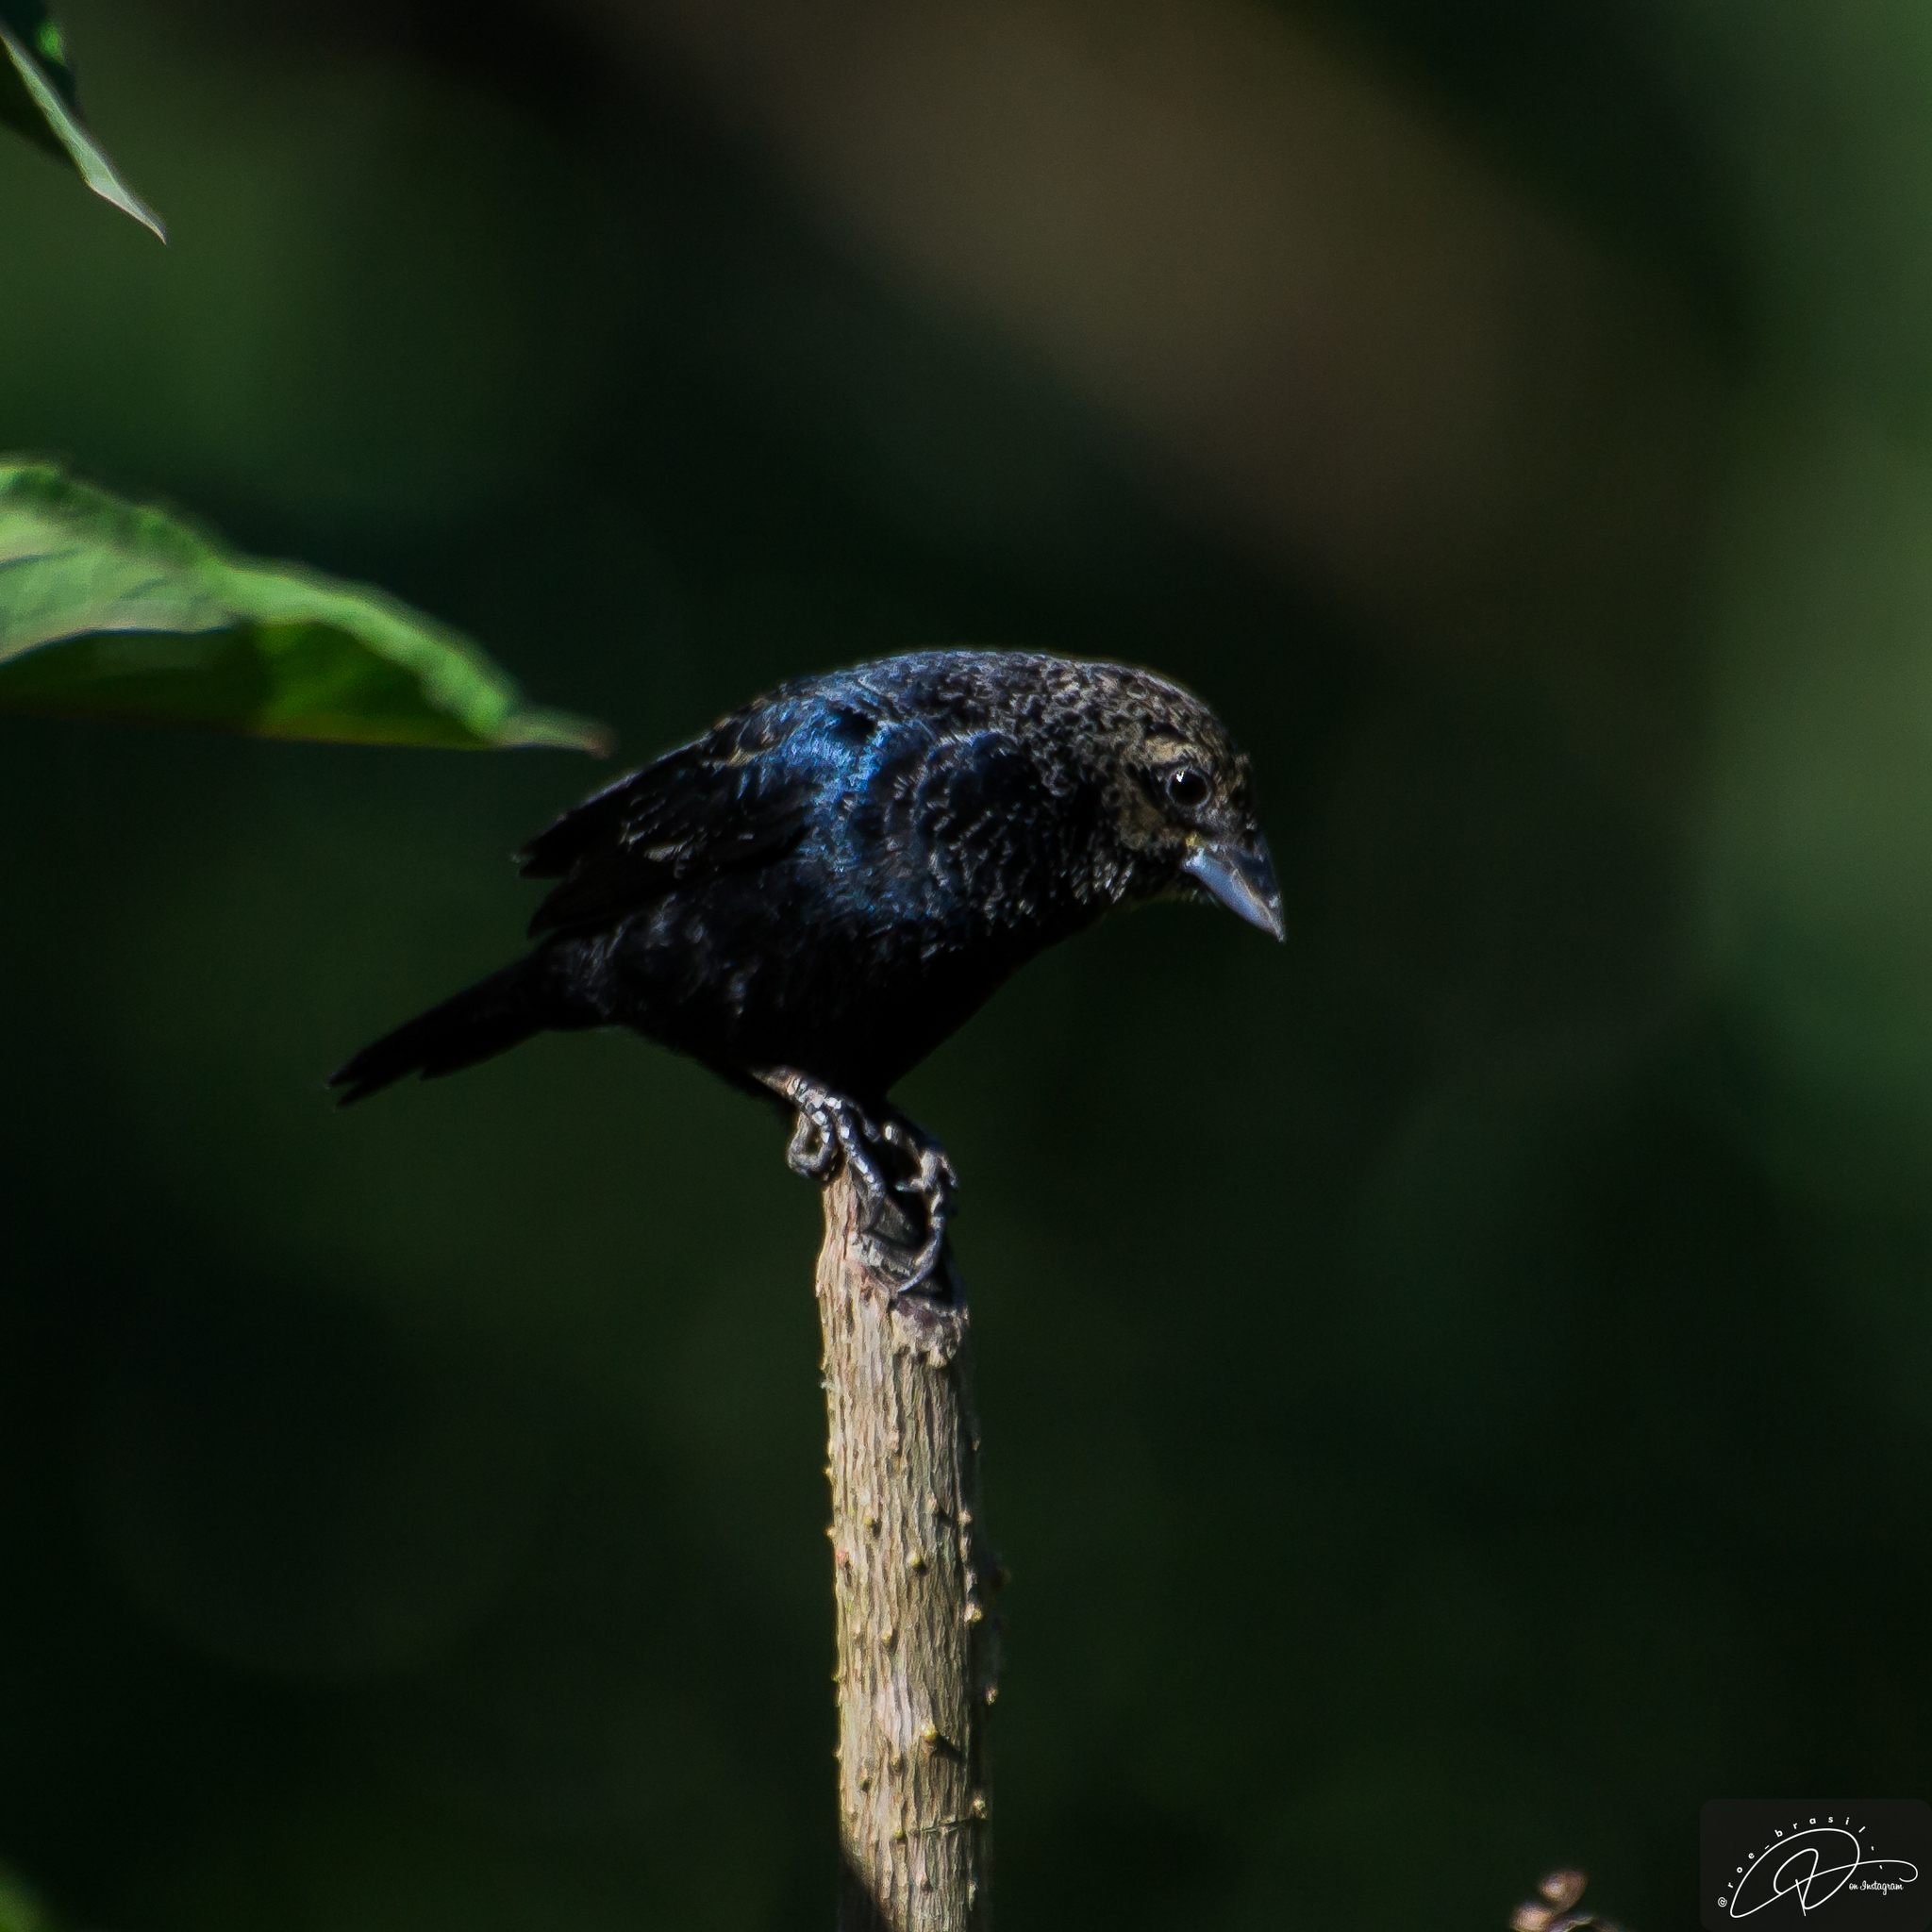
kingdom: Animalia
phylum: Chordata
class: Aves
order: Passeriformes
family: Thraupidae
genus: Volatinia
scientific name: Volatinia jacarina
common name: Blue-black grassquit
